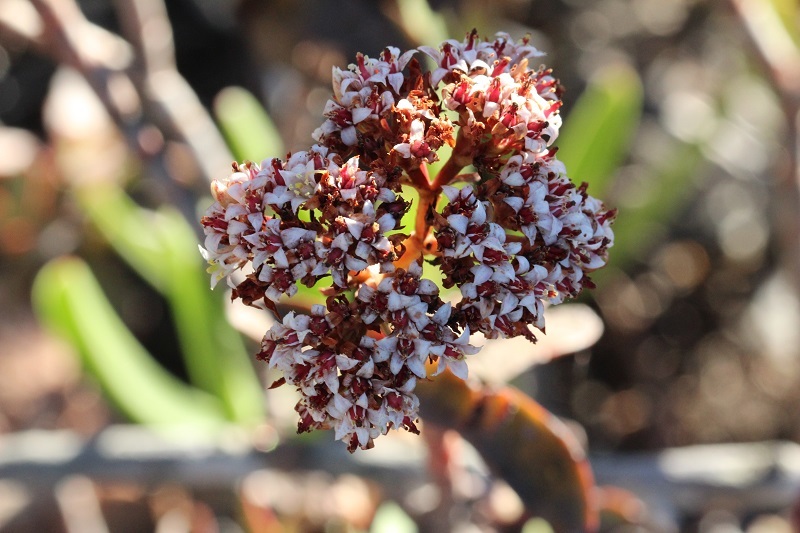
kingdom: Plantae
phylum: Tracheophyta
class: Magnoliopsida
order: Saxifragales
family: Crassulaceae
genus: Crassula
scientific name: Crassula rubricaulis
